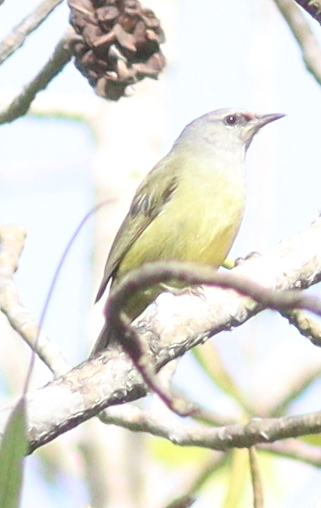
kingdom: Animalia
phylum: Chordata
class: Aves
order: Passeriformes
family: Zosteropidae
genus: Lophozosterops
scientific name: Lophozosterops javanicus
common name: Grey-throated ibon
